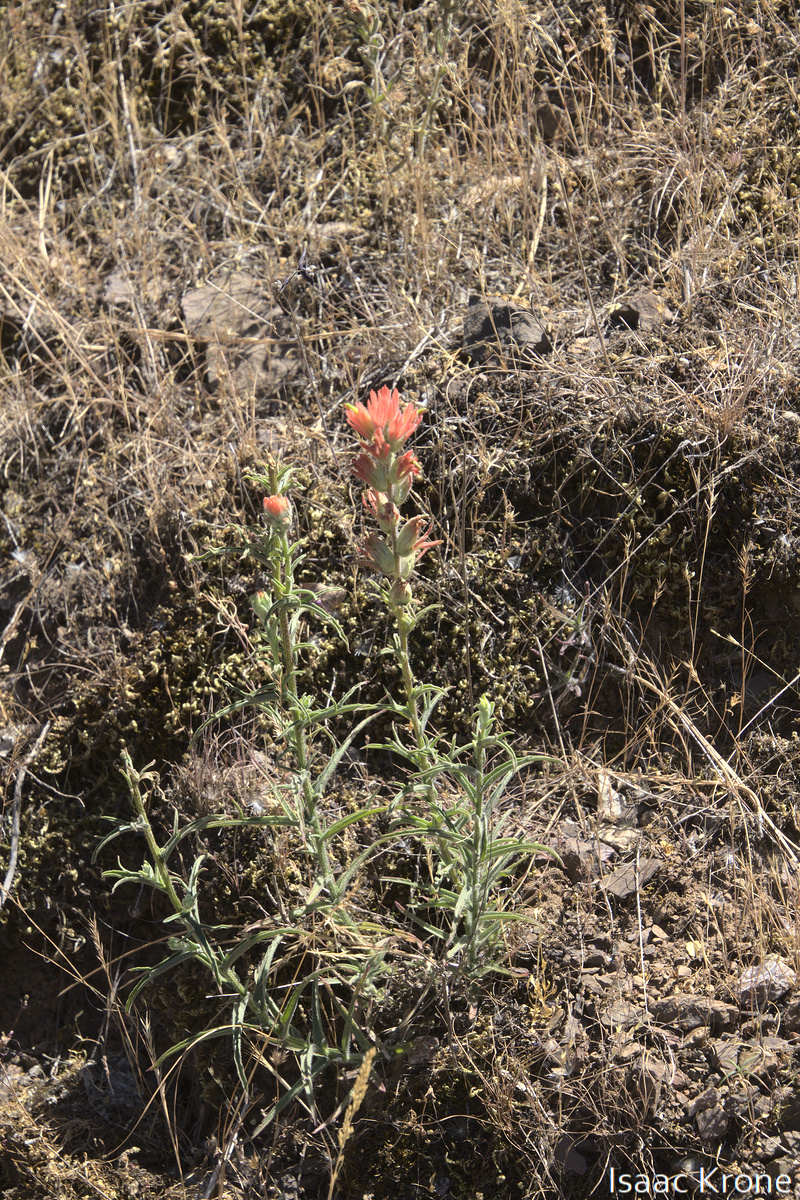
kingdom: Plantae
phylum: Tracheophyta
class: Magnoliopsida
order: Lamiales
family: Orobanchaceae
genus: Castilleja
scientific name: Castilleja foliolosa
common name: Woolly indian paintbrush
